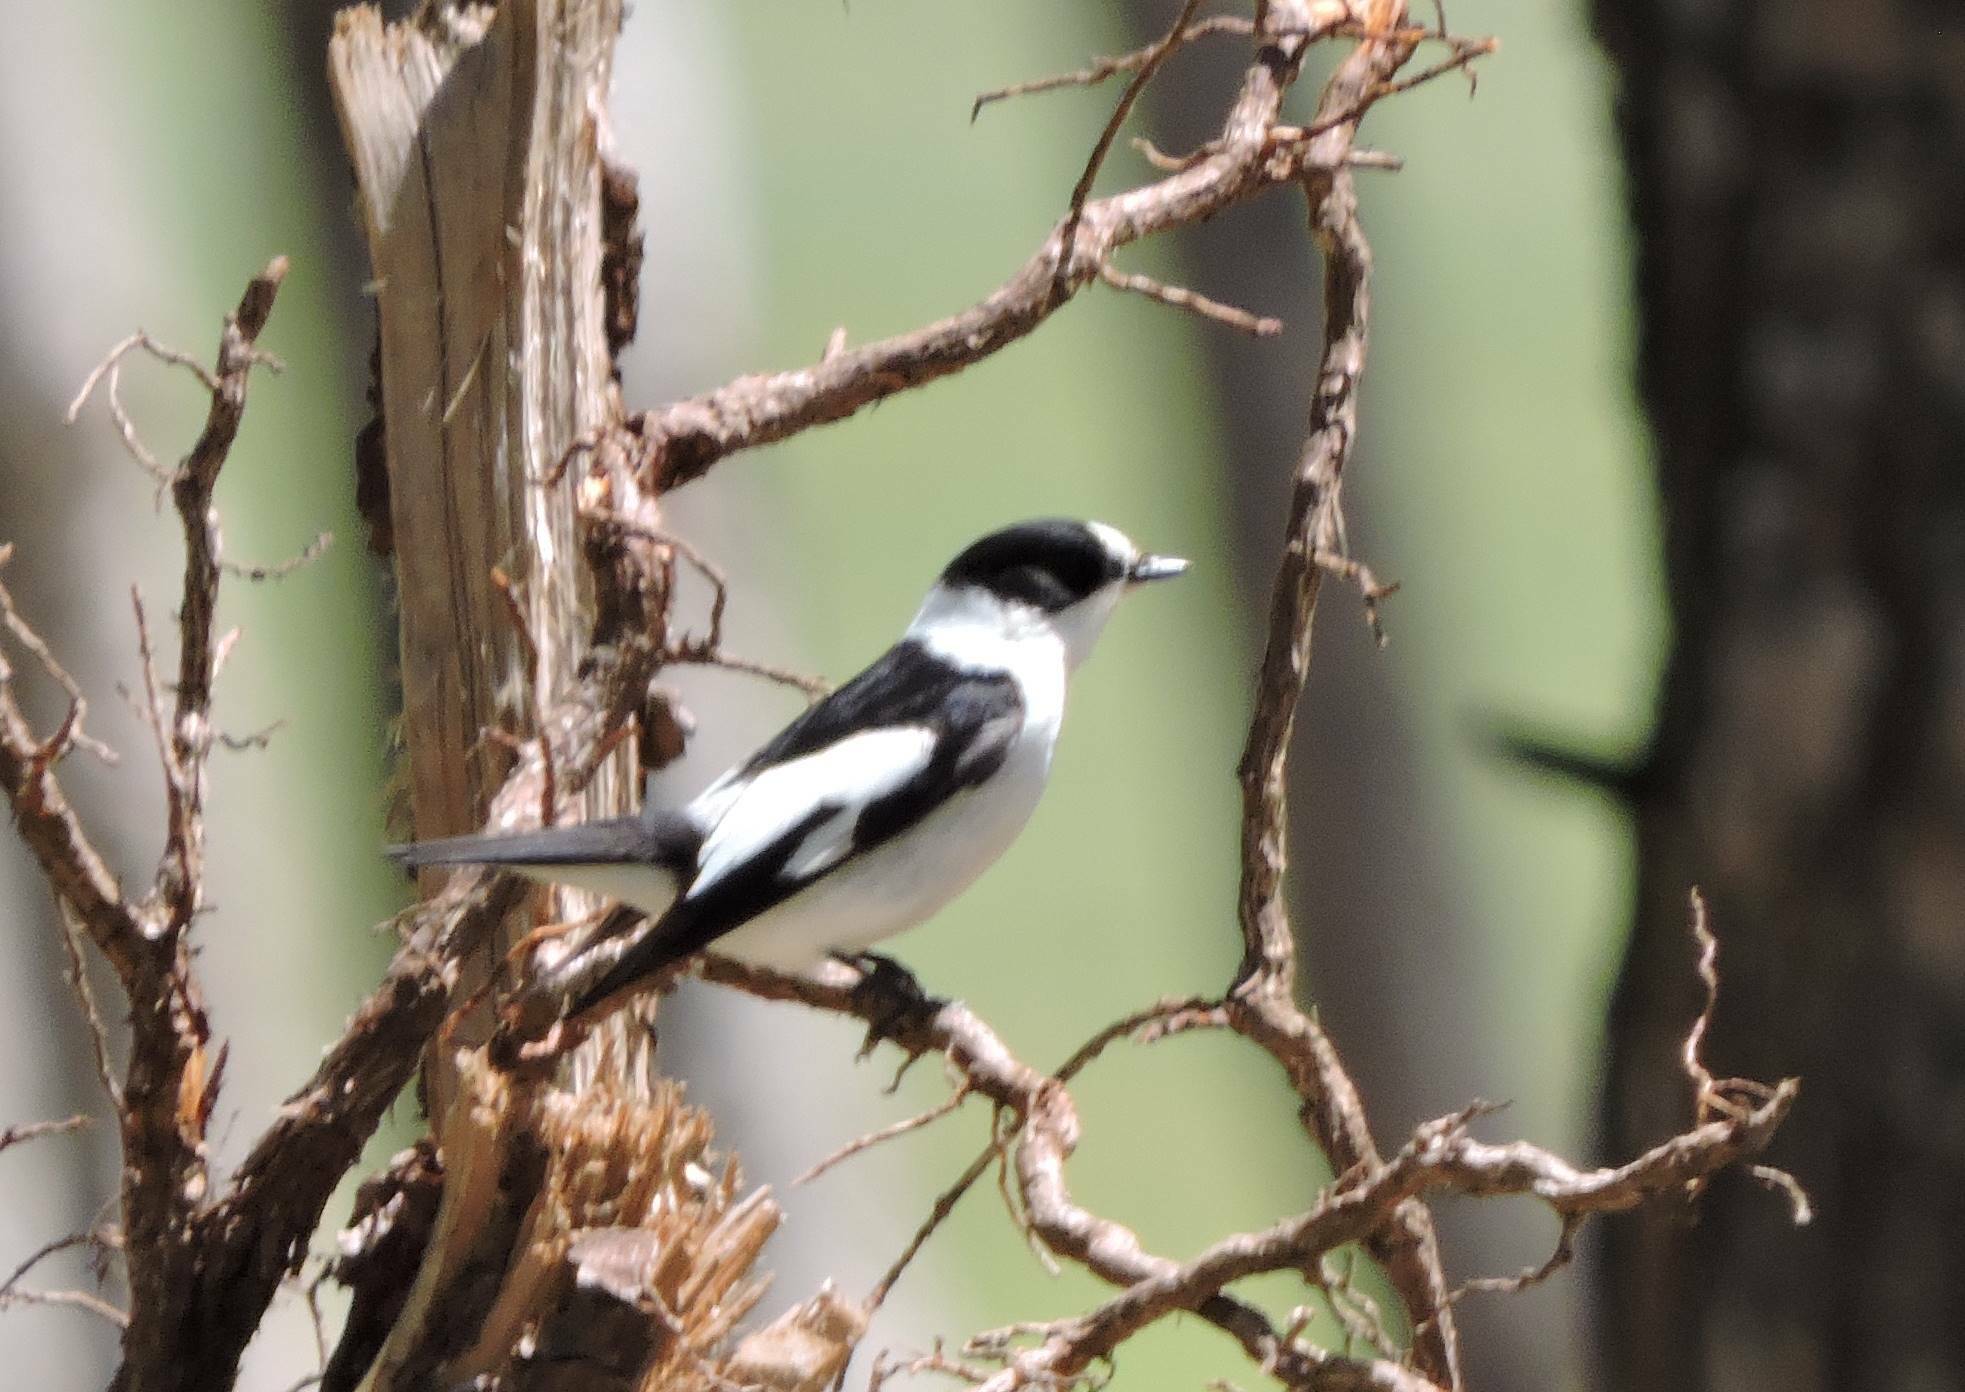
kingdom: Animalia
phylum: Chordata
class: Aves
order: Passeriformes
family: Muscicapidae
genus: Ficedula
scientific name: Ficedula albicollis
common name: Collared flycatcher
